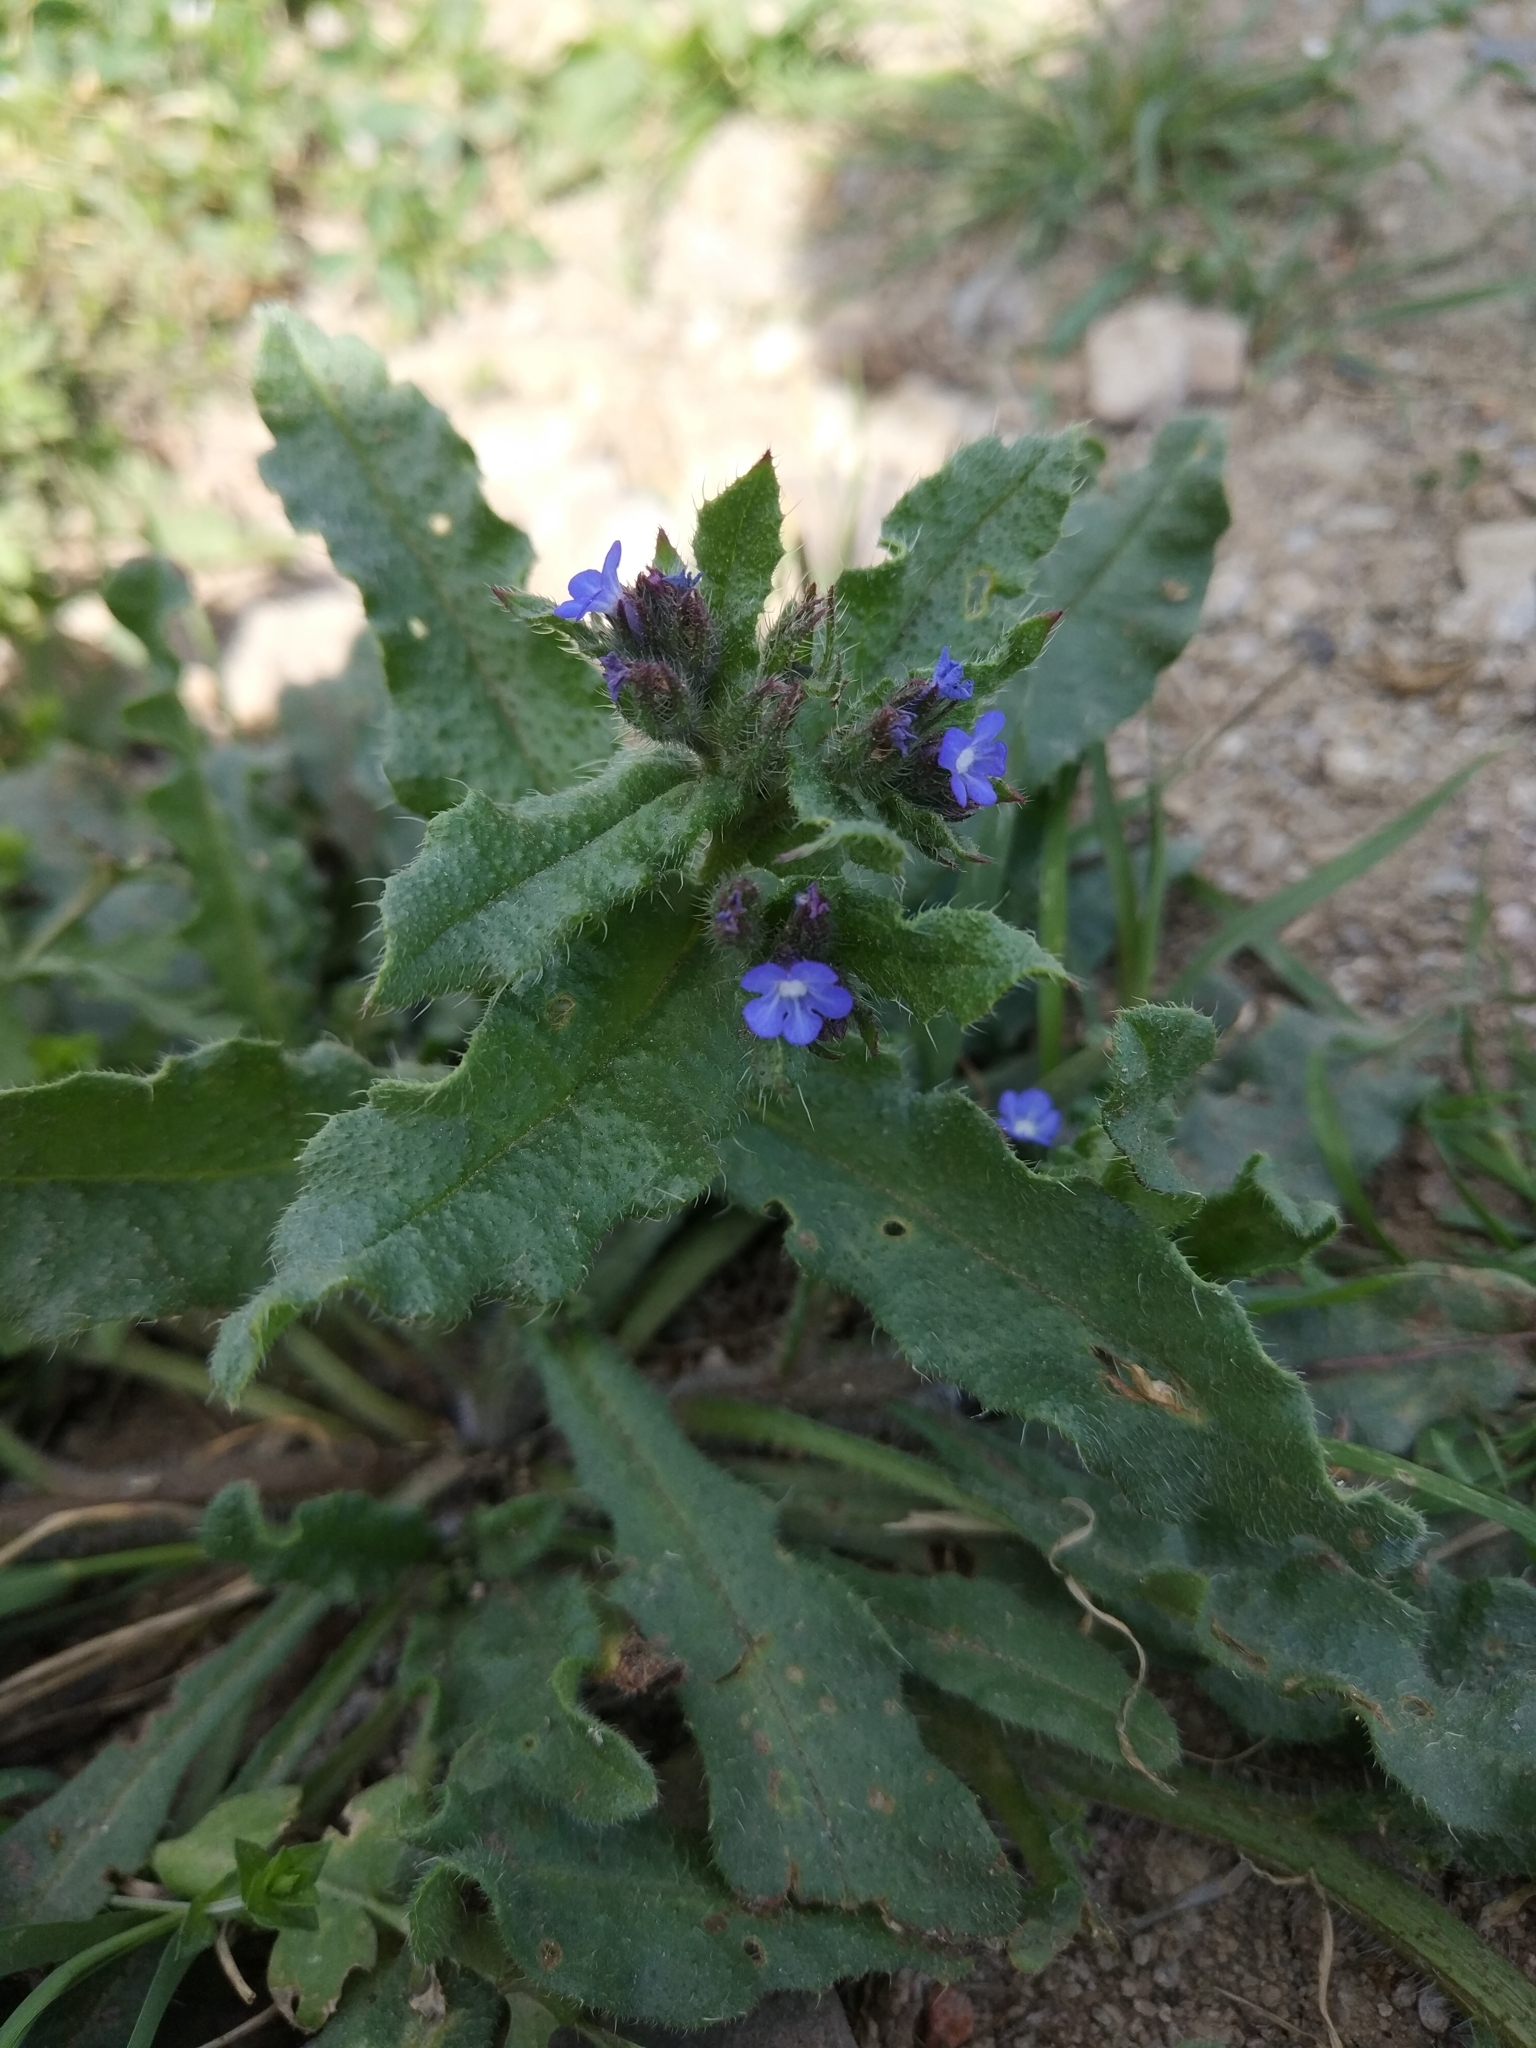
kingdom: Plantae
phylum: Tracheophyta
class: Magnoliopsida
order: Boraginales
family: Boraginaceae
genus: Lycopsis
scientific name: Lycopsis arvensis
